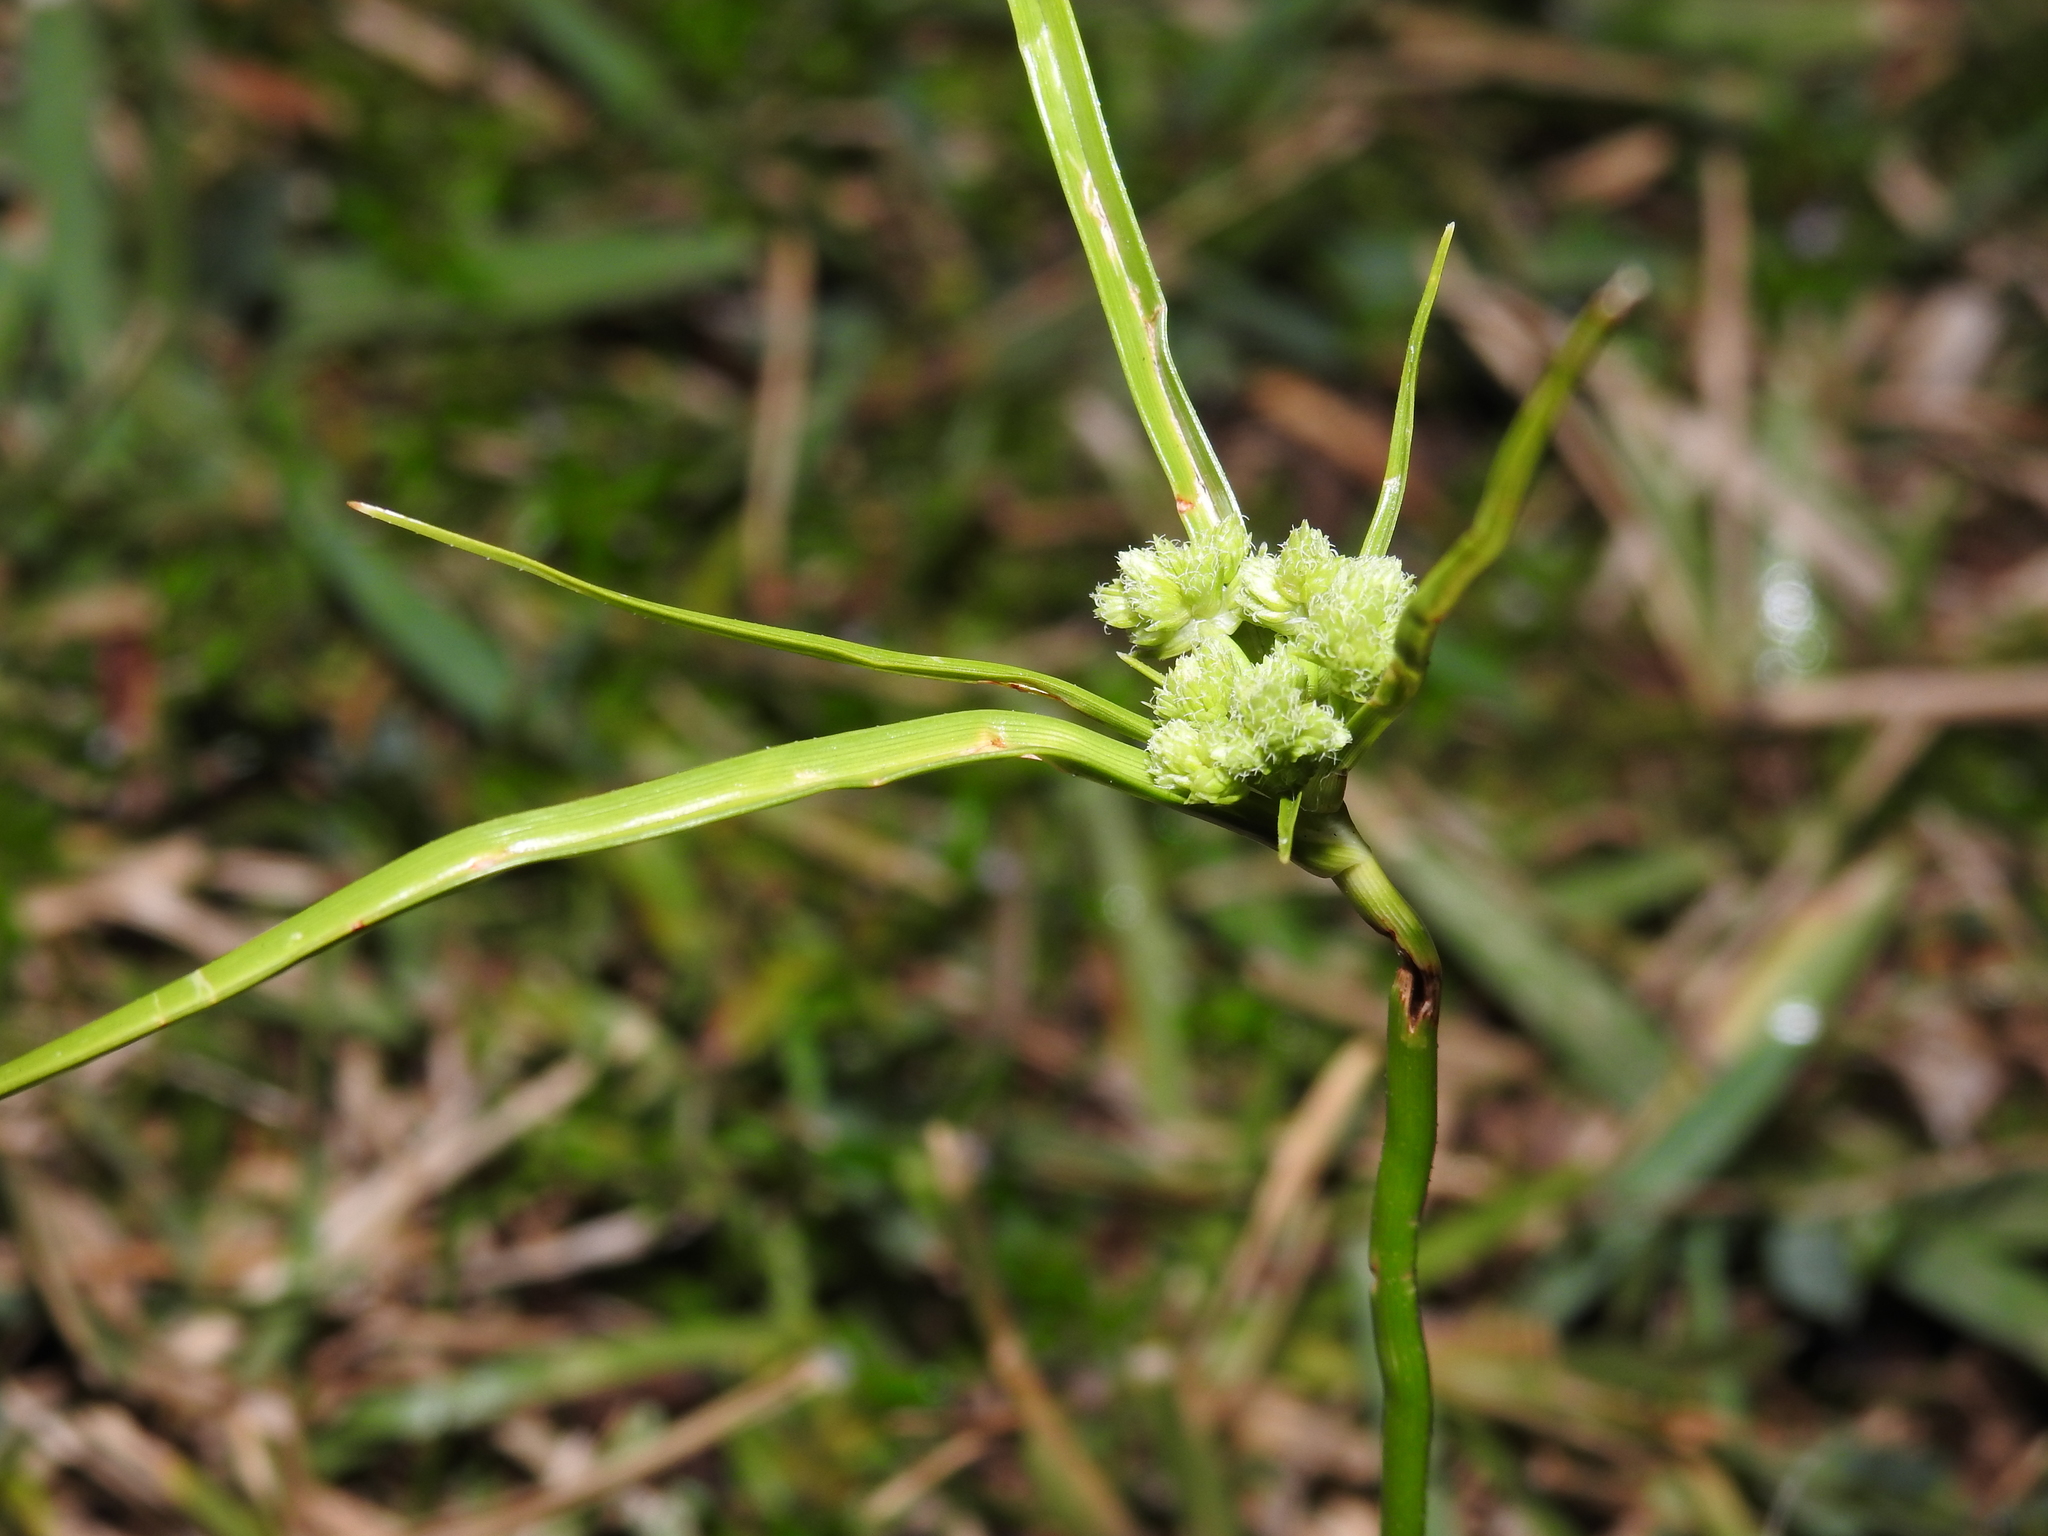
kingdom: Plantae
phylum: Tracheophyta
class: Liliopsida
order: Poales
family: Cyperaceae
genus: Cyperus
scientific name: Cyperus surinamensis
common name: Tropical flat sedge
